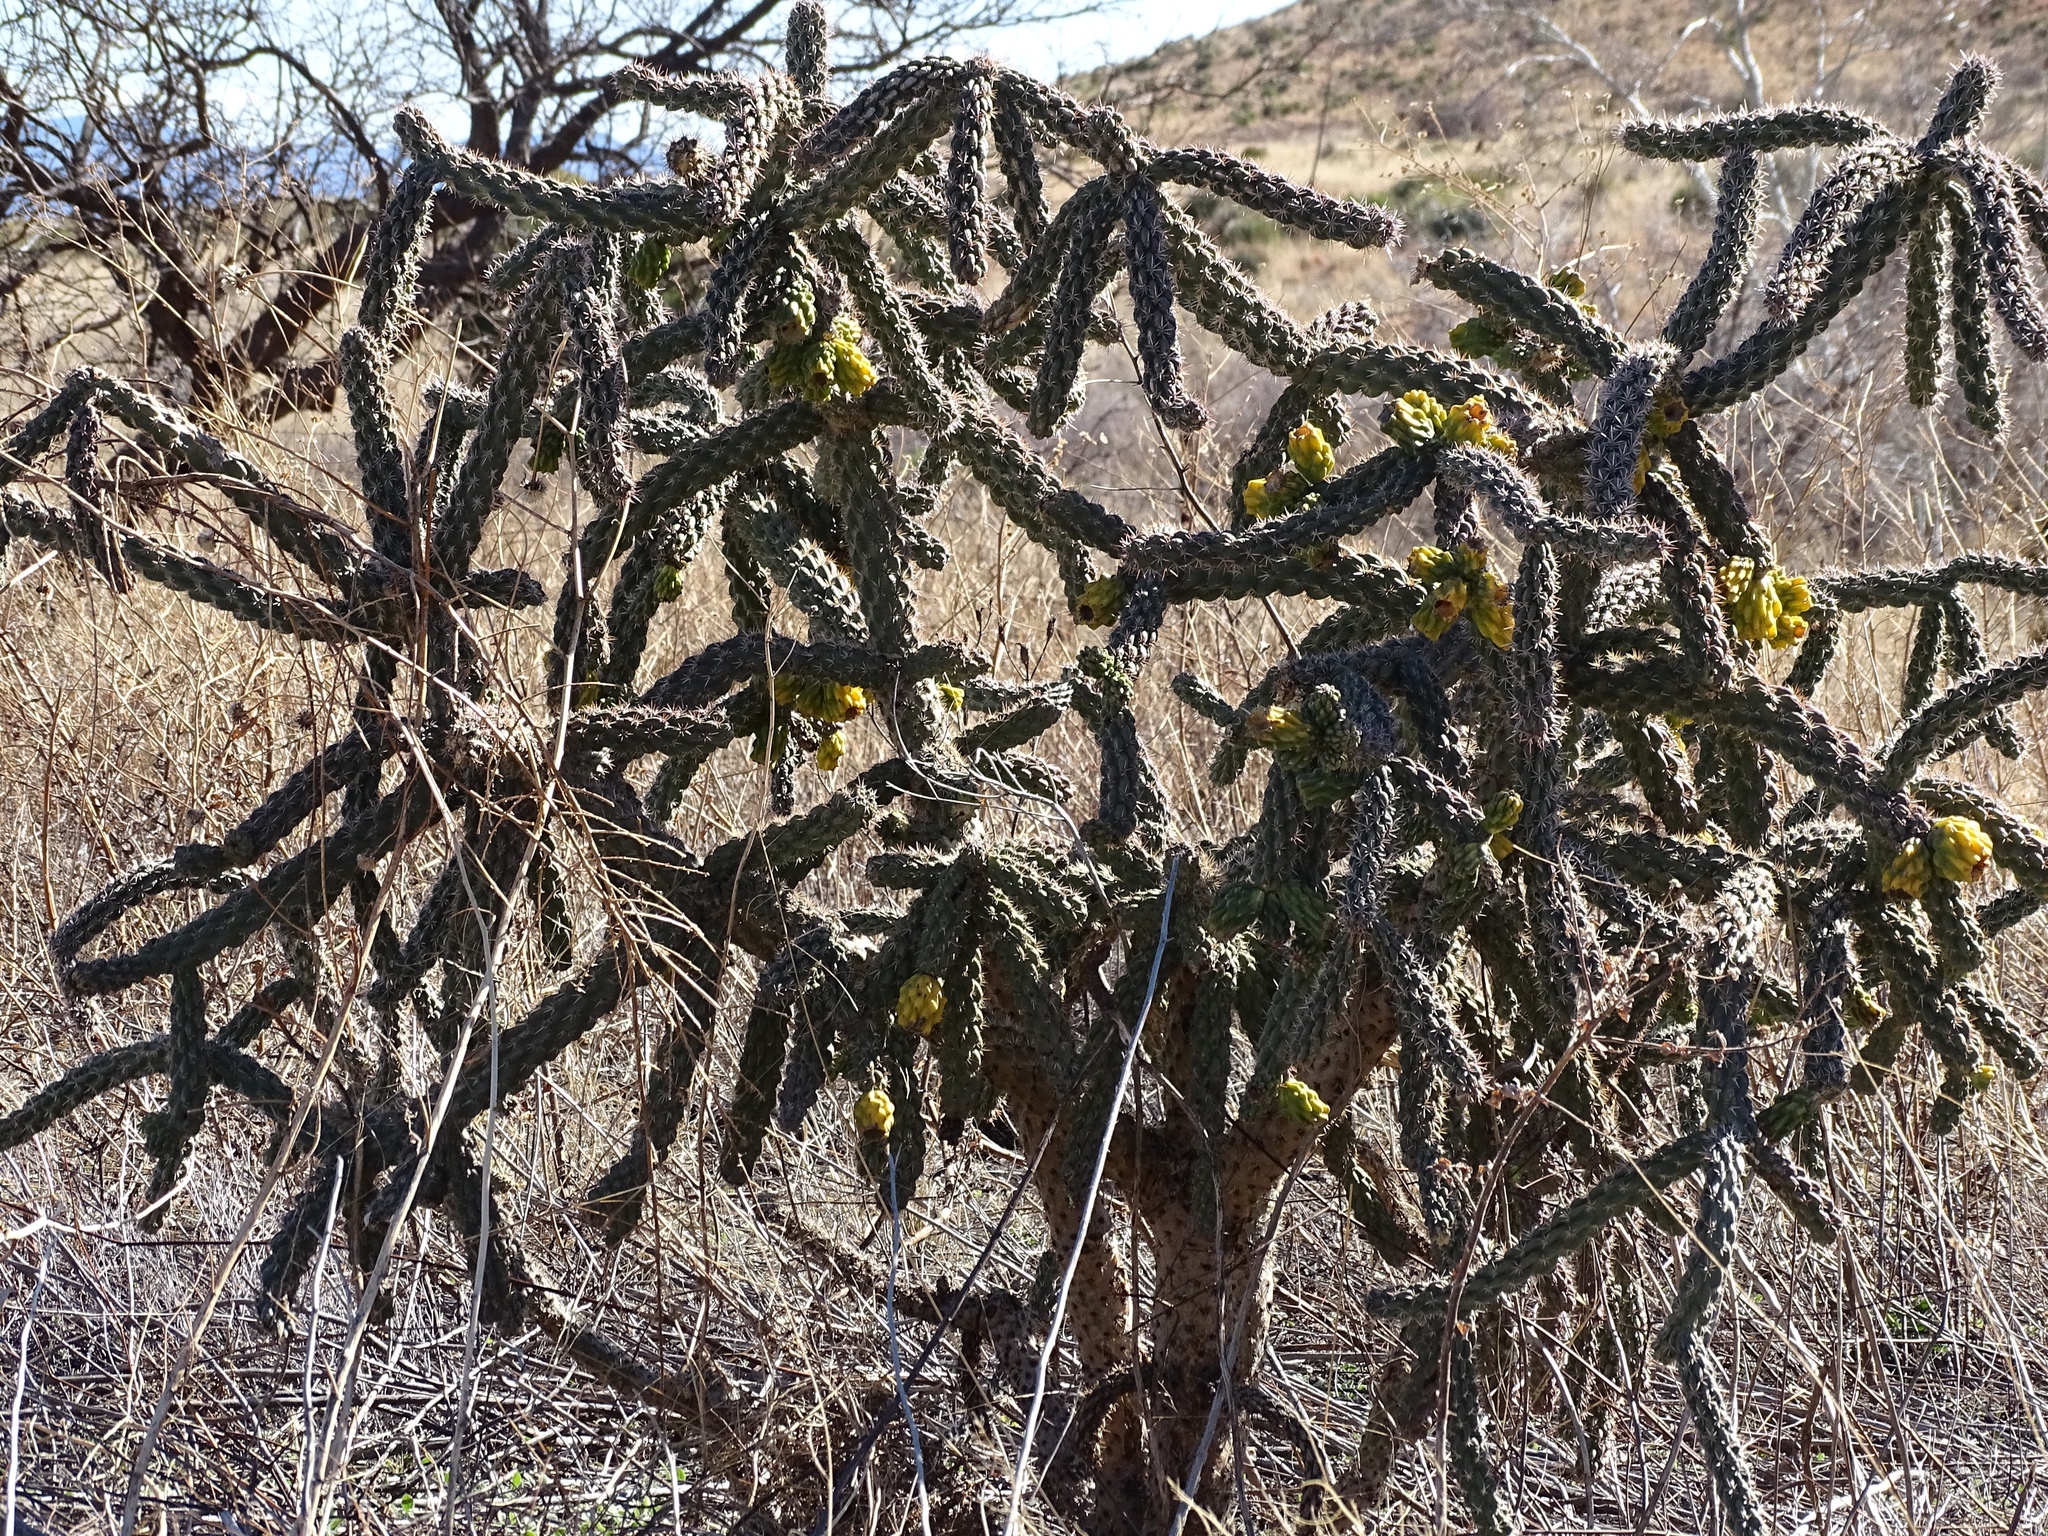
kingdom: Plantae
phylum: Tracheophyta
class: Magnoliopsida
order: Caryophyllales
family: Cactaceae
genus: Cylindropuntia
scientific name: Cylindropuntia imbricata
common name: Candelabrum cactus
